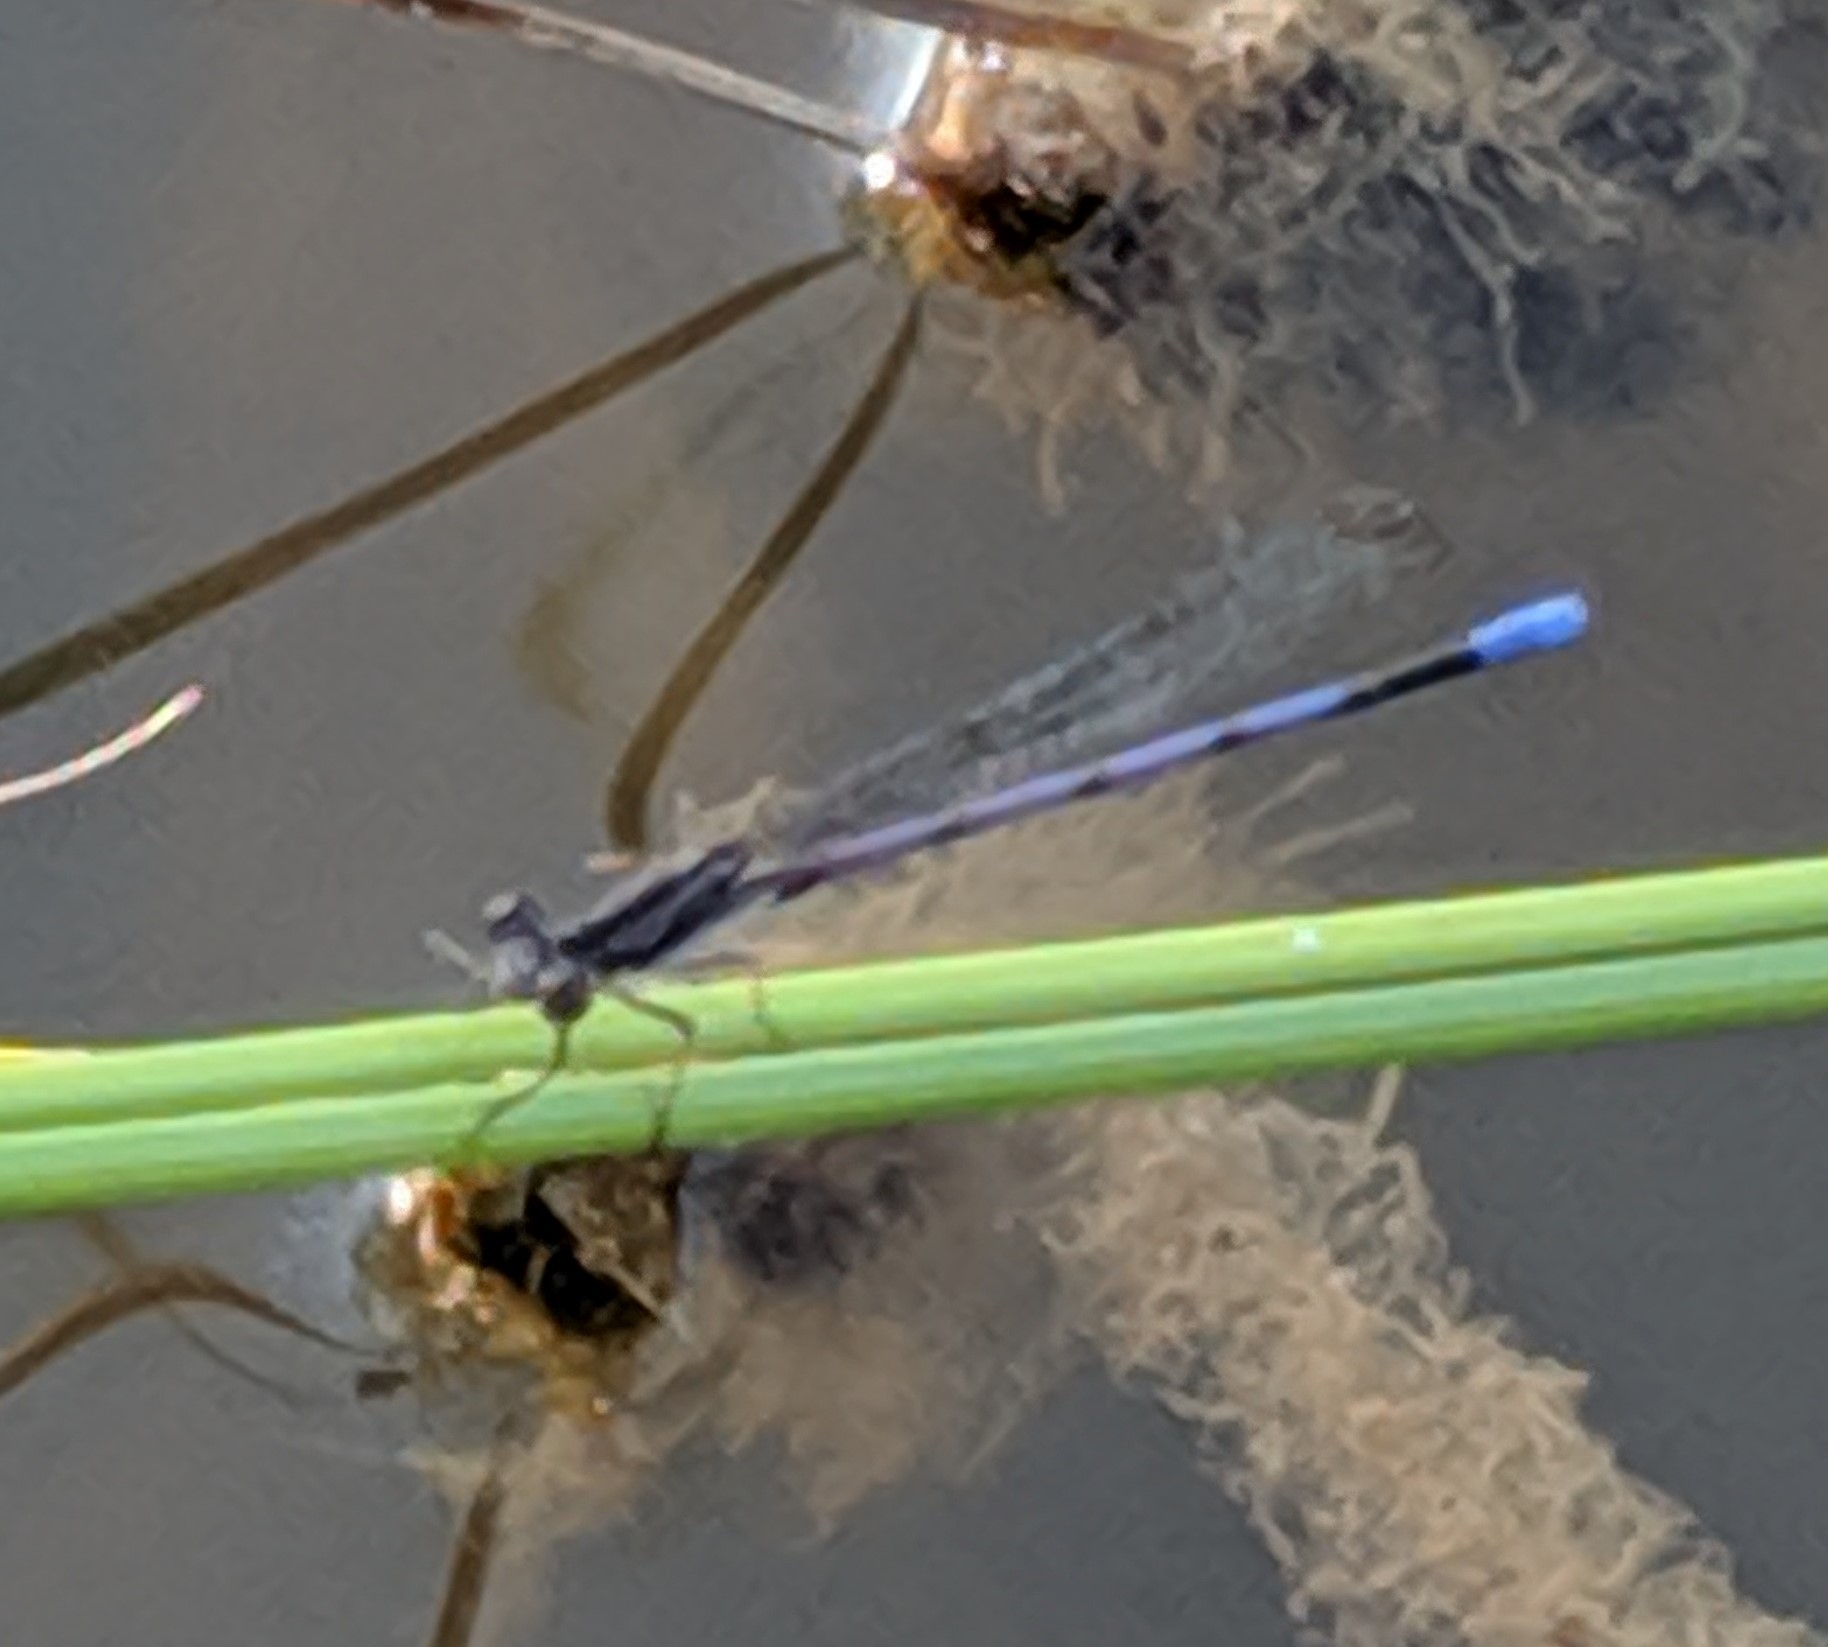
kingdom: Animalia
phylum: Arthropoda
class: Insecta
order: Odonata
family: Coenagrionidae
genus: Argia
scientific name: Argia fumipennis
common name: Variable dancer
